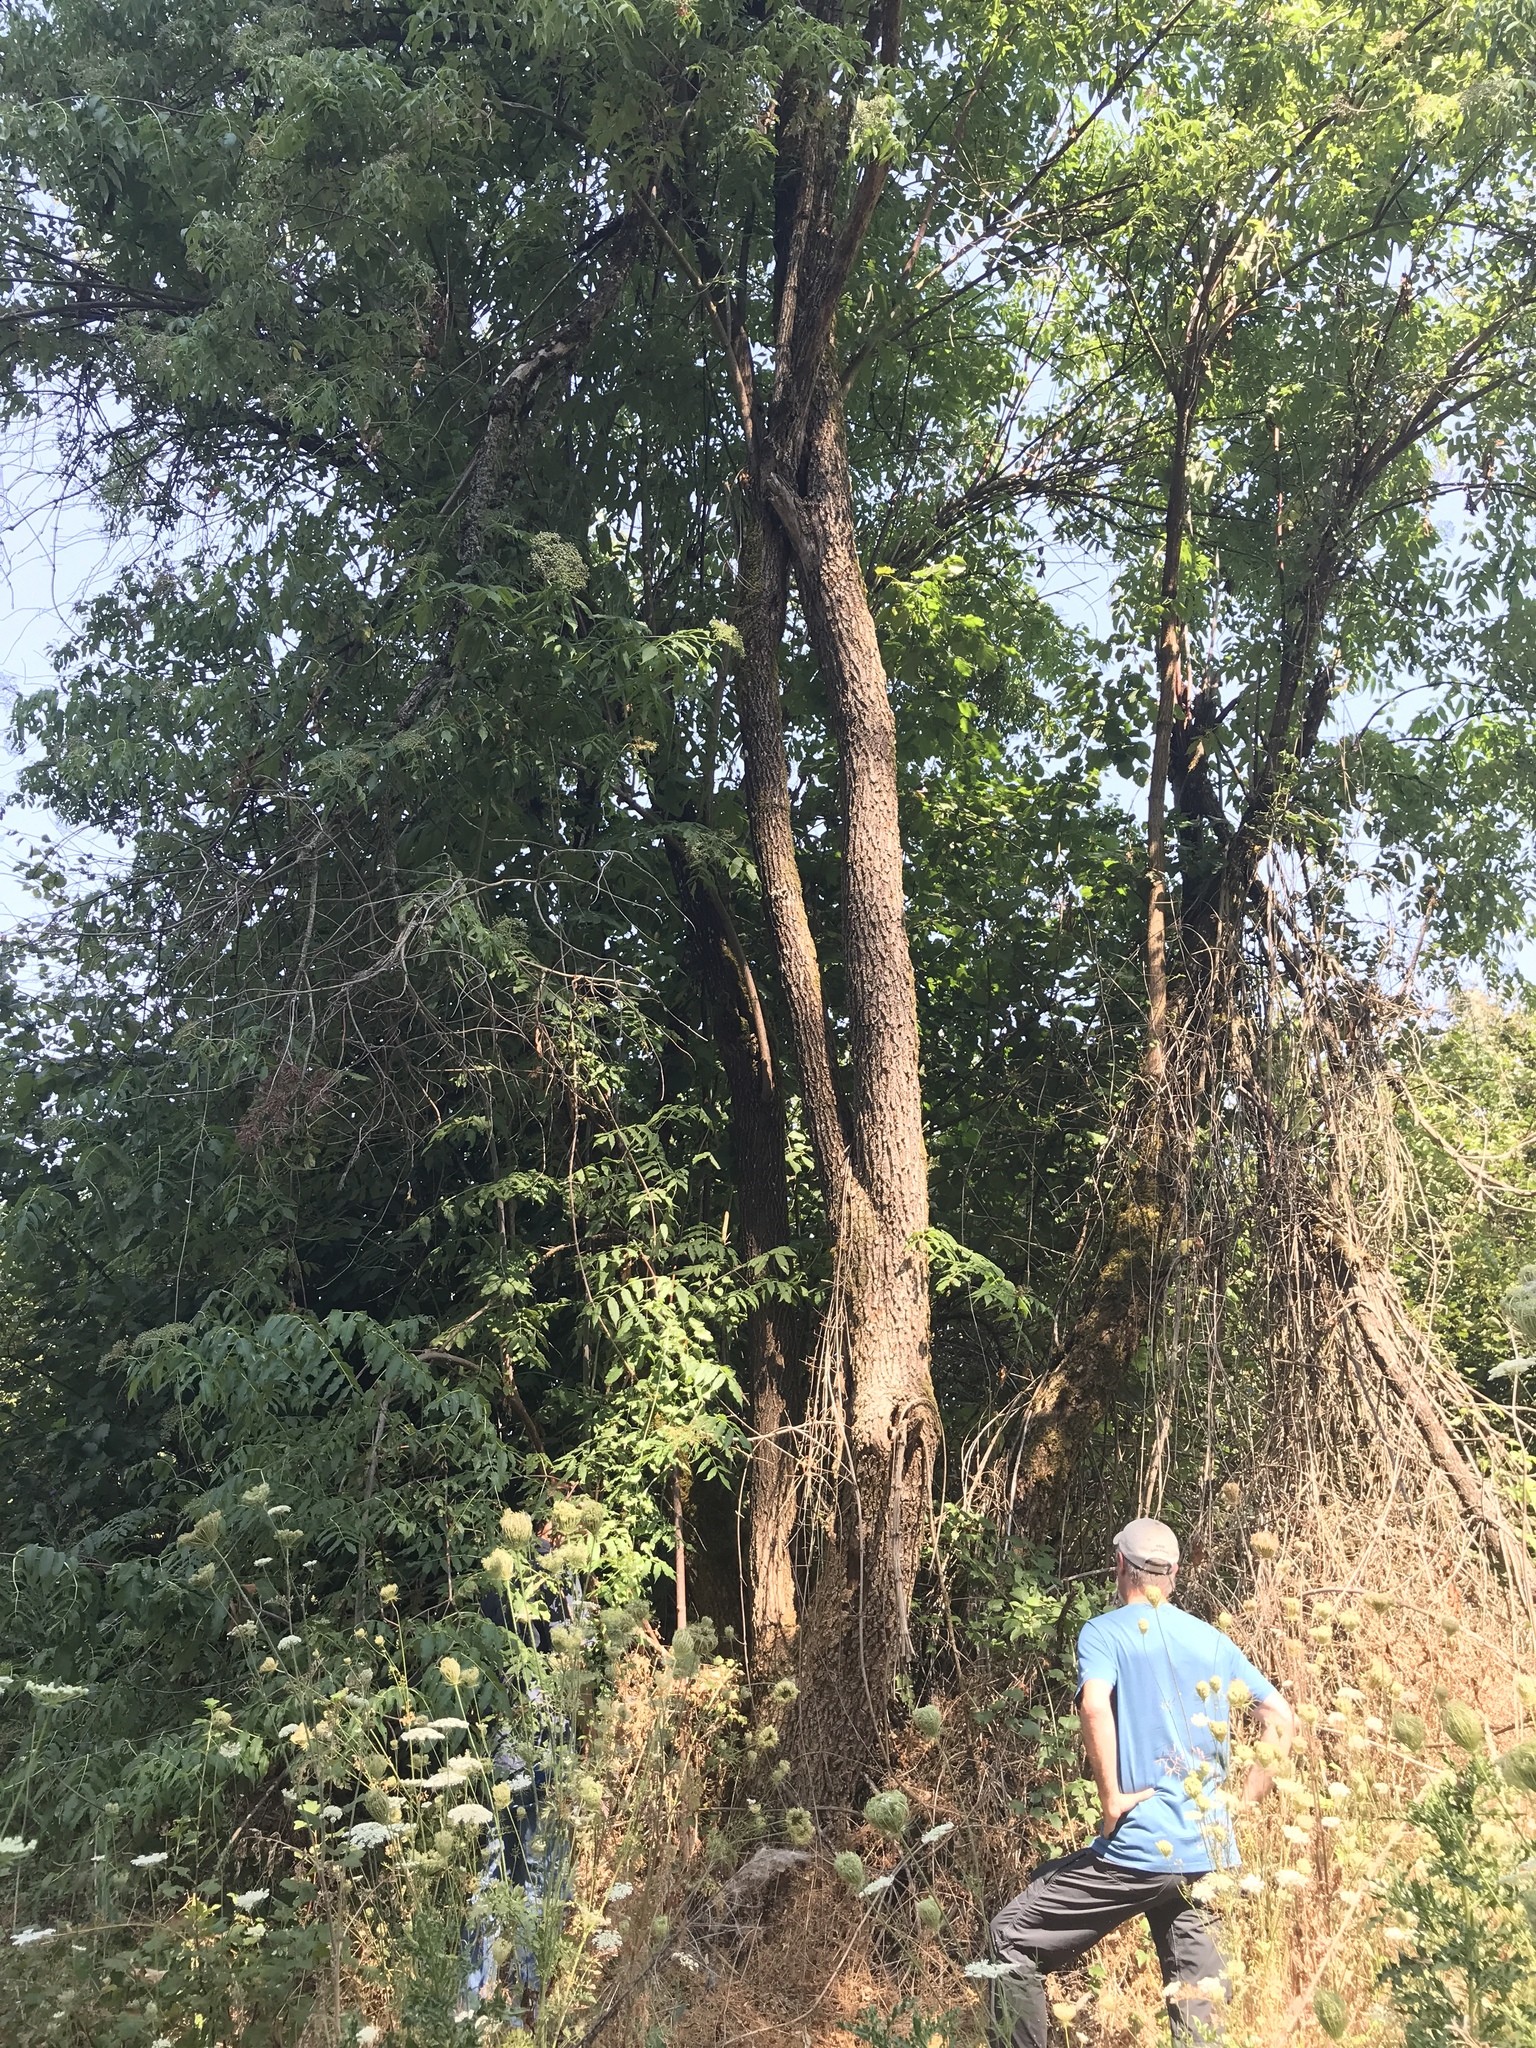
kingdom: Plantae
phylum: Tracheophyta
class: Magnoliopsida
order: Dipsacales
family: Viburnaceae
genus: Sambucus
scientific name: Sambucus cerulea
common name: Blue elder
